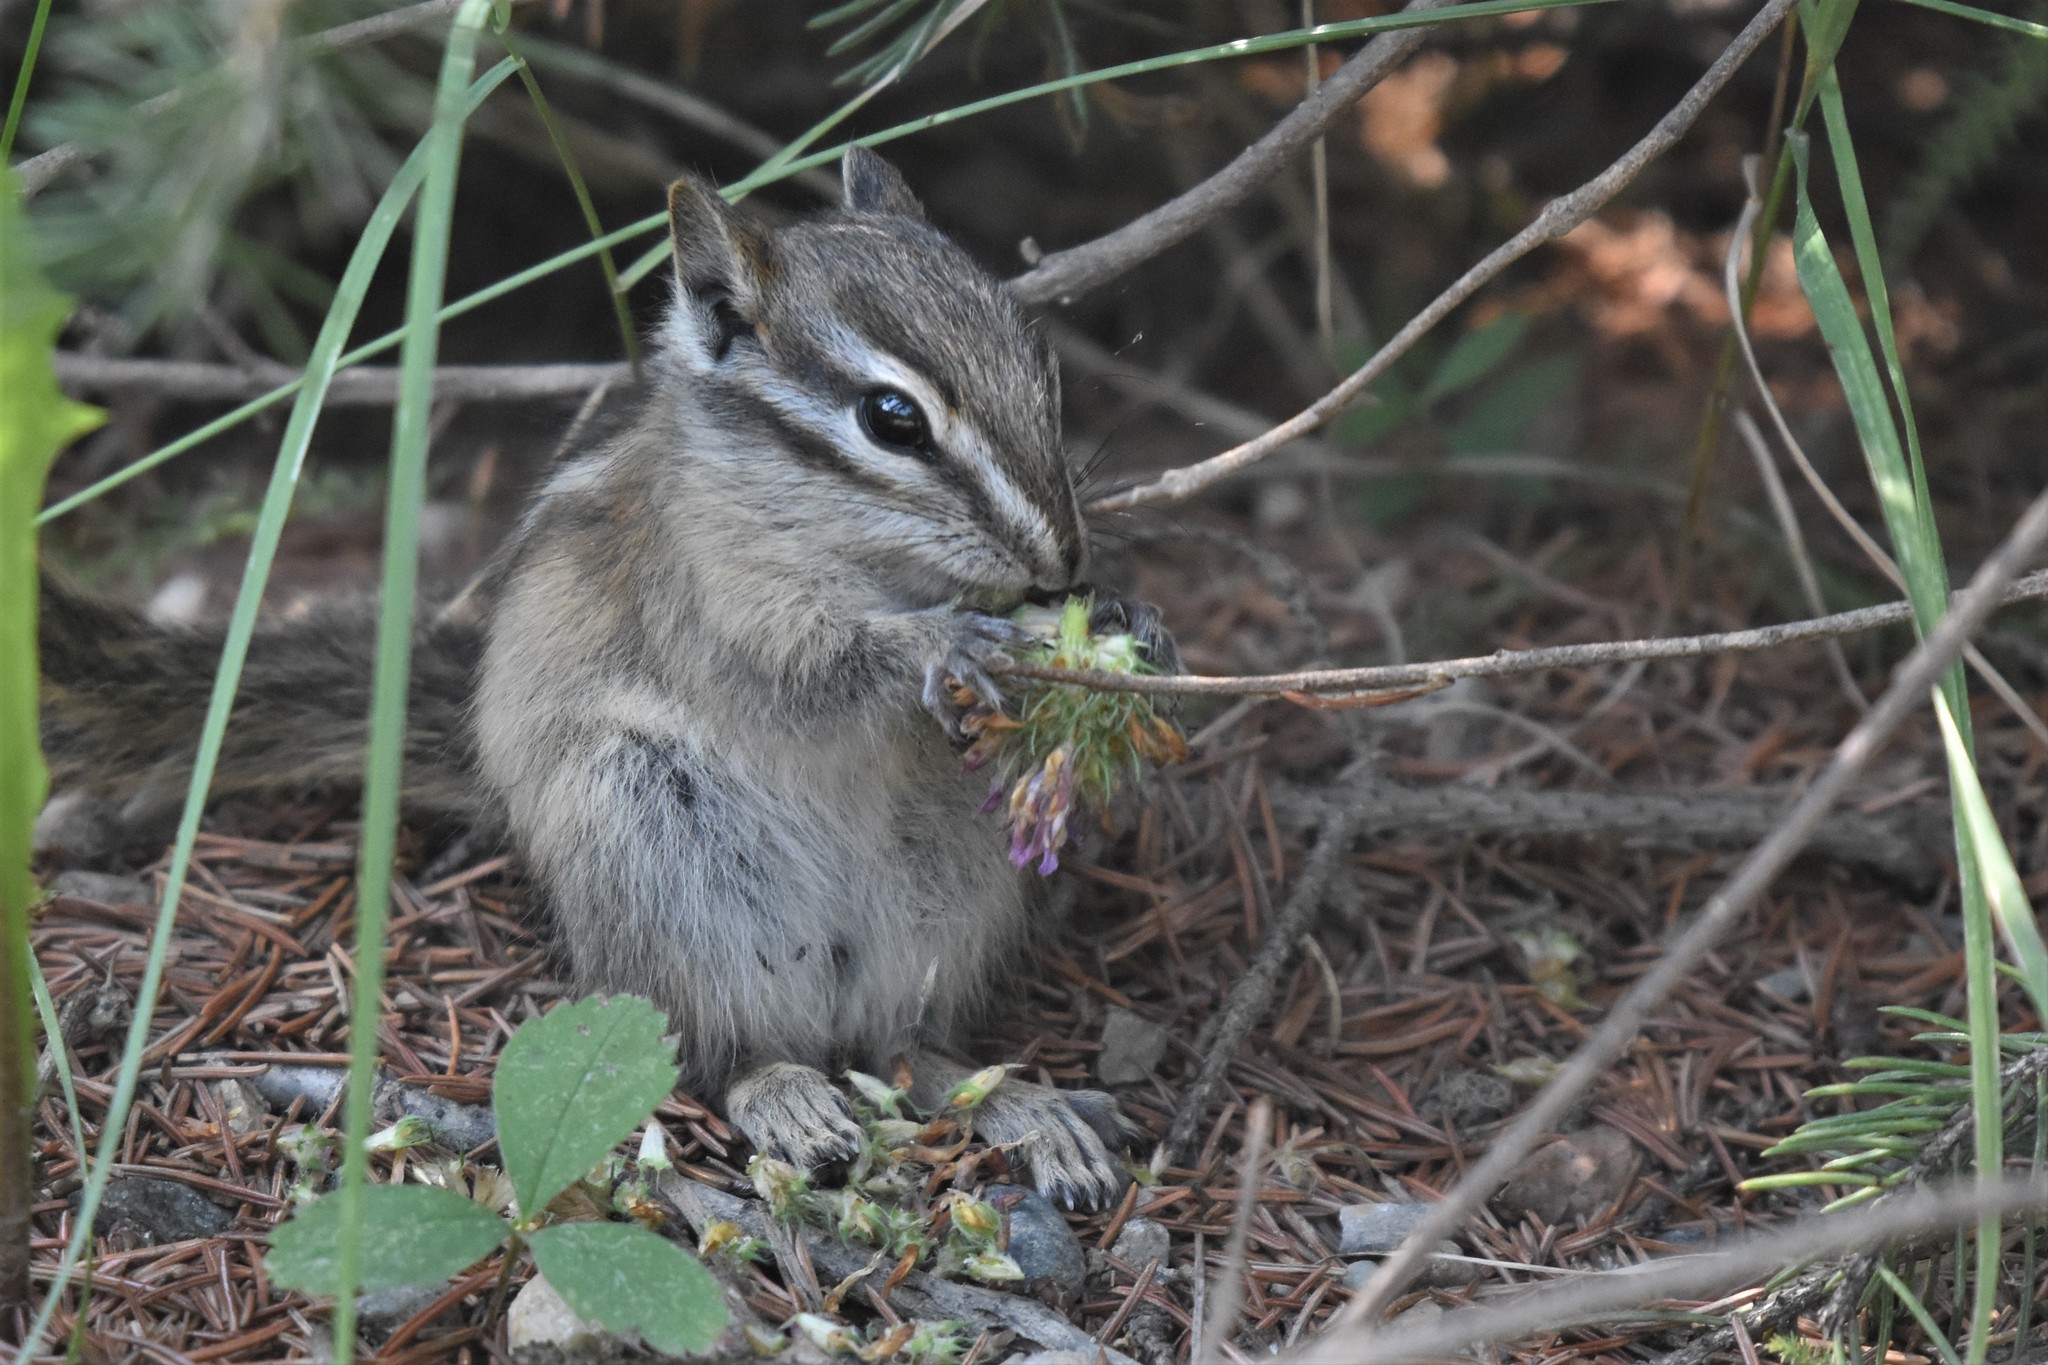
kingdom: Animalia
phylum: Chordata
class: Mammalia
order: Rodentia
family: Sciuridae
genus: Tamias
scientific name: Tamias minimus
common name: Least chipmunk
